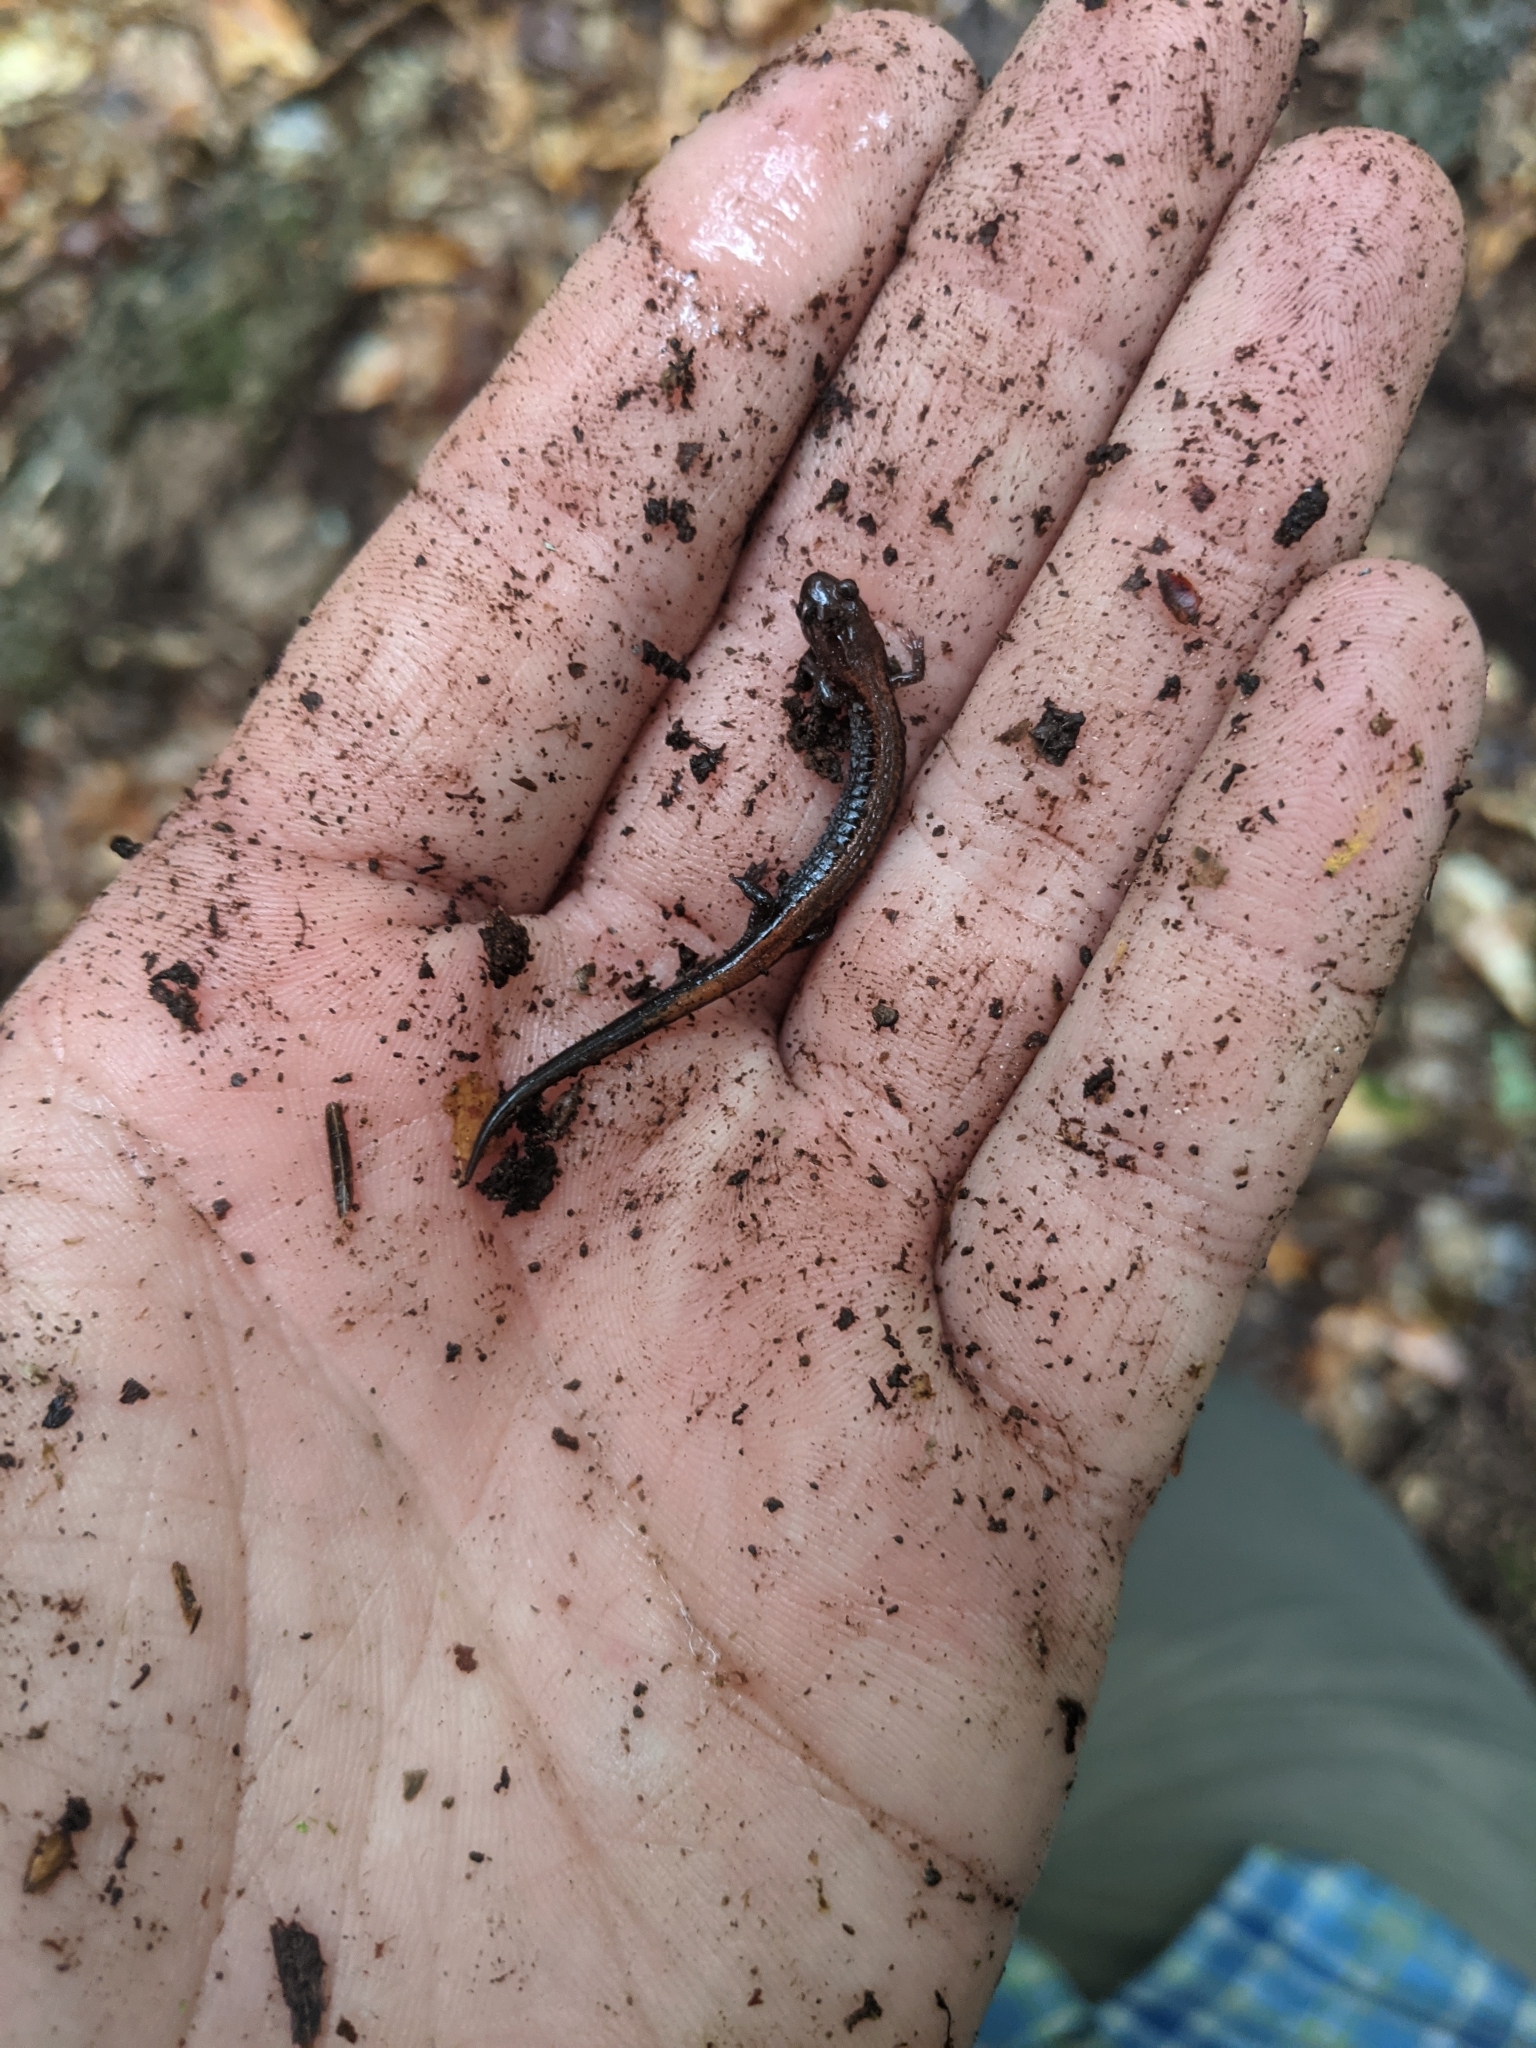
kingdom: Animalia
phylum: Chordata
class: Amphibia
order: Caudata
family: Plethodontidae
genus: Plethodon
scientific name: Plethodon cinereus
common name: Redback salamander
